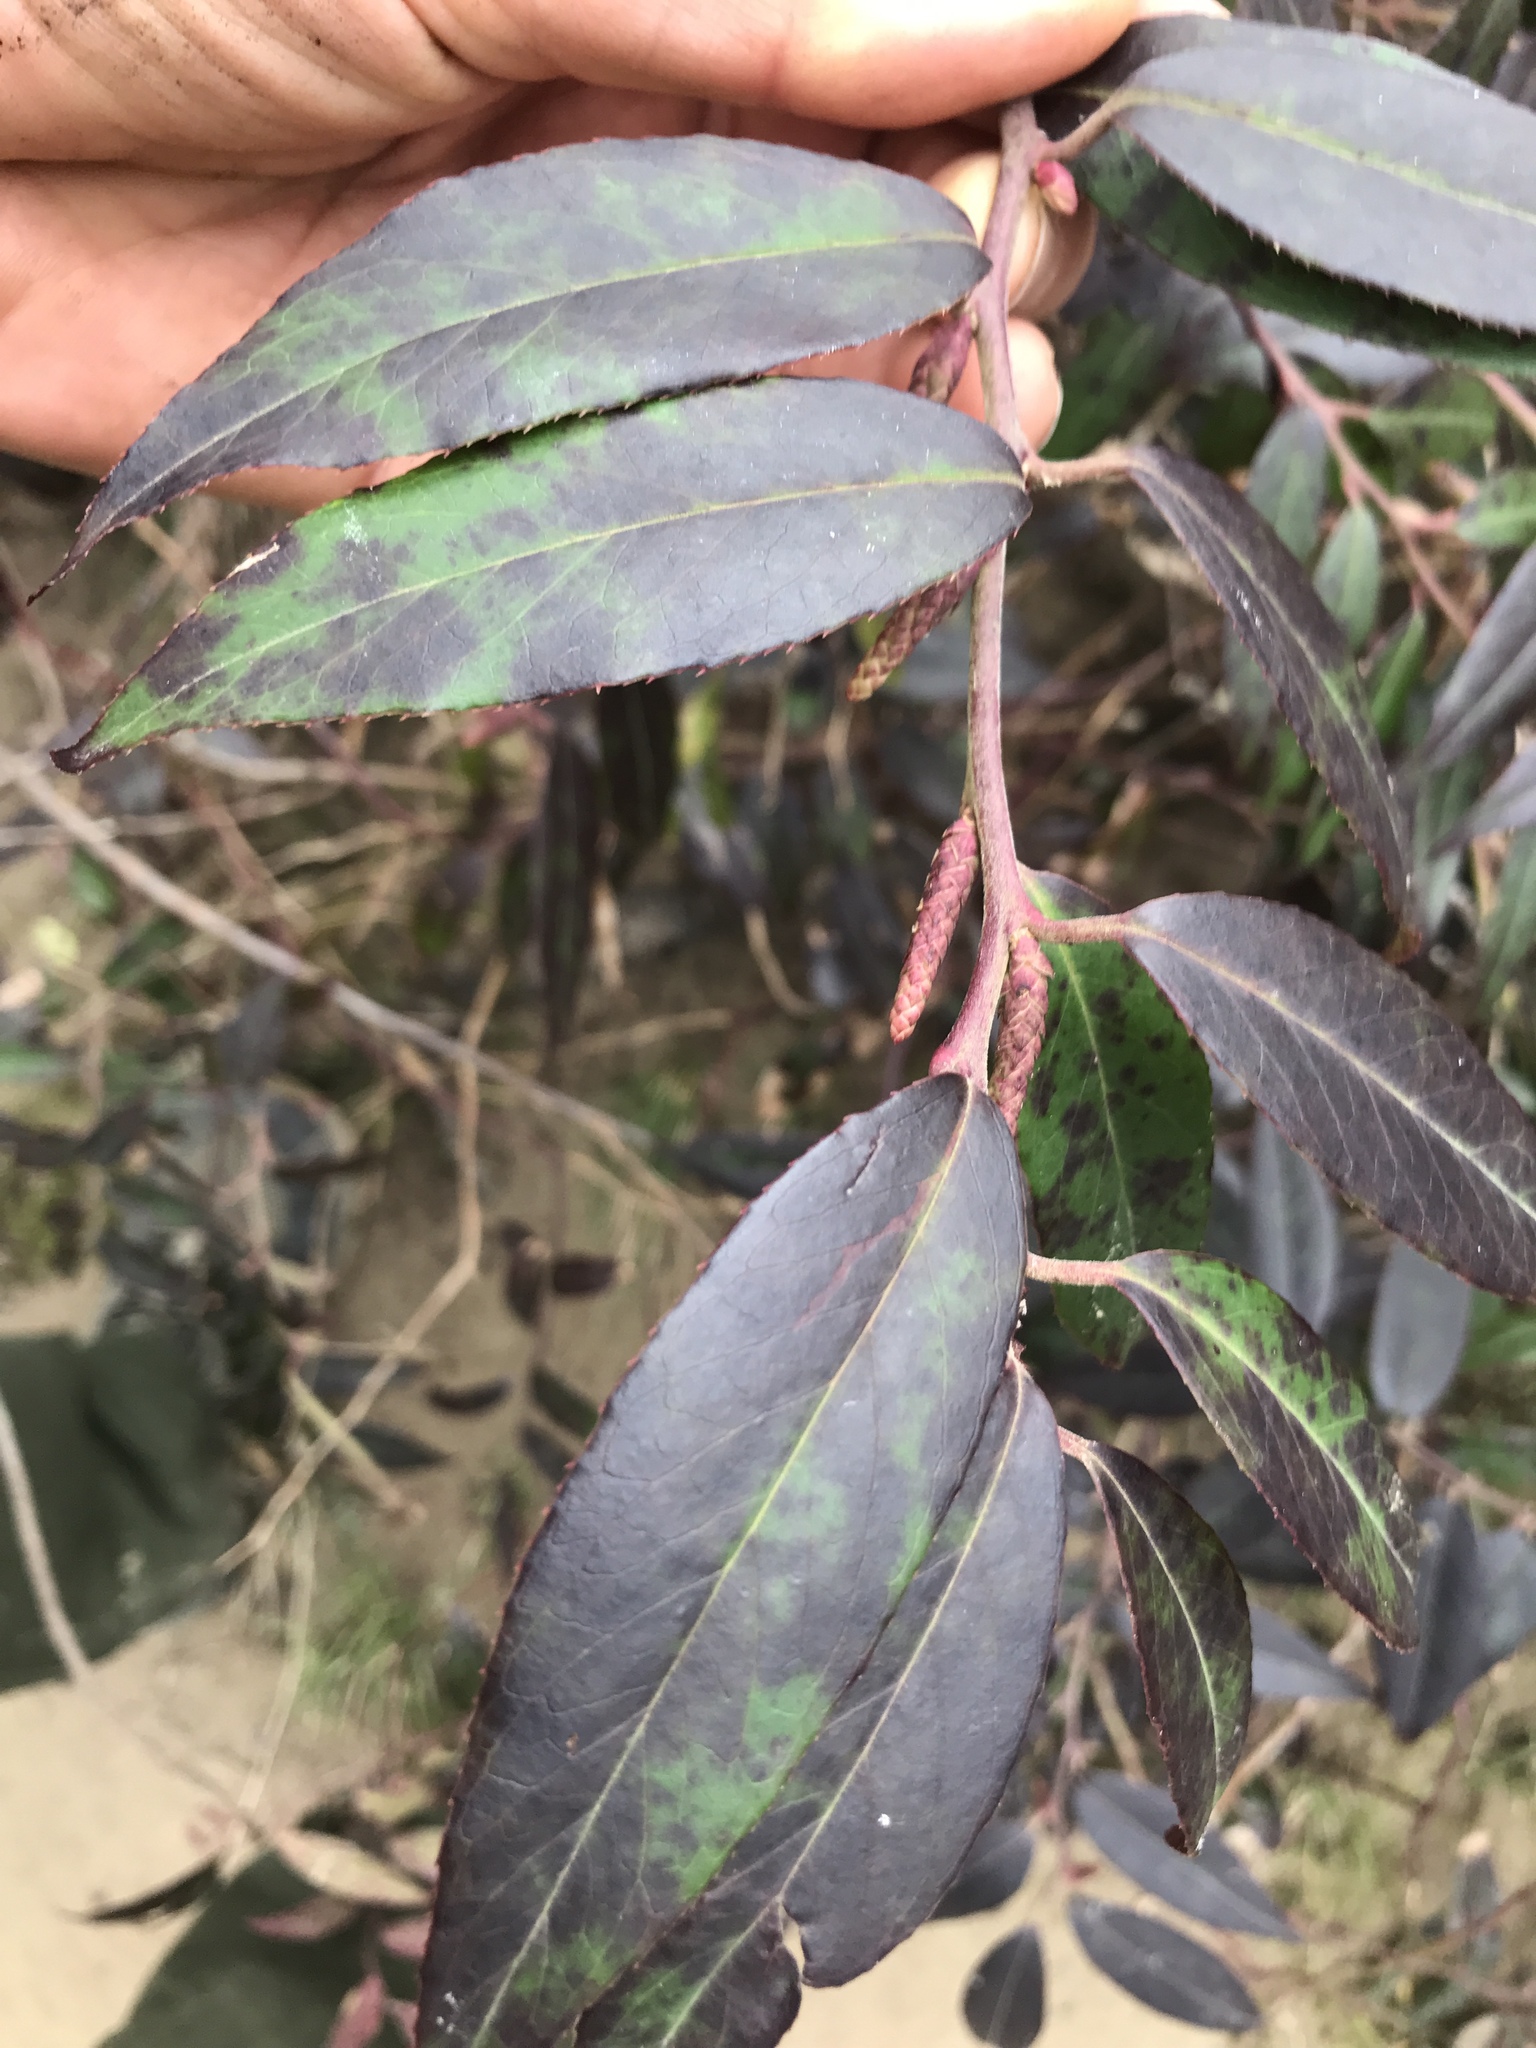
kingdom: Plantae
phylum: Tracheophyta
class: Magnoliopsida
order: Ericales
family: Ericaceae
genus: Leucothoe
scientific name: Leucothoe fontanesiana
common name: Fetterbush
